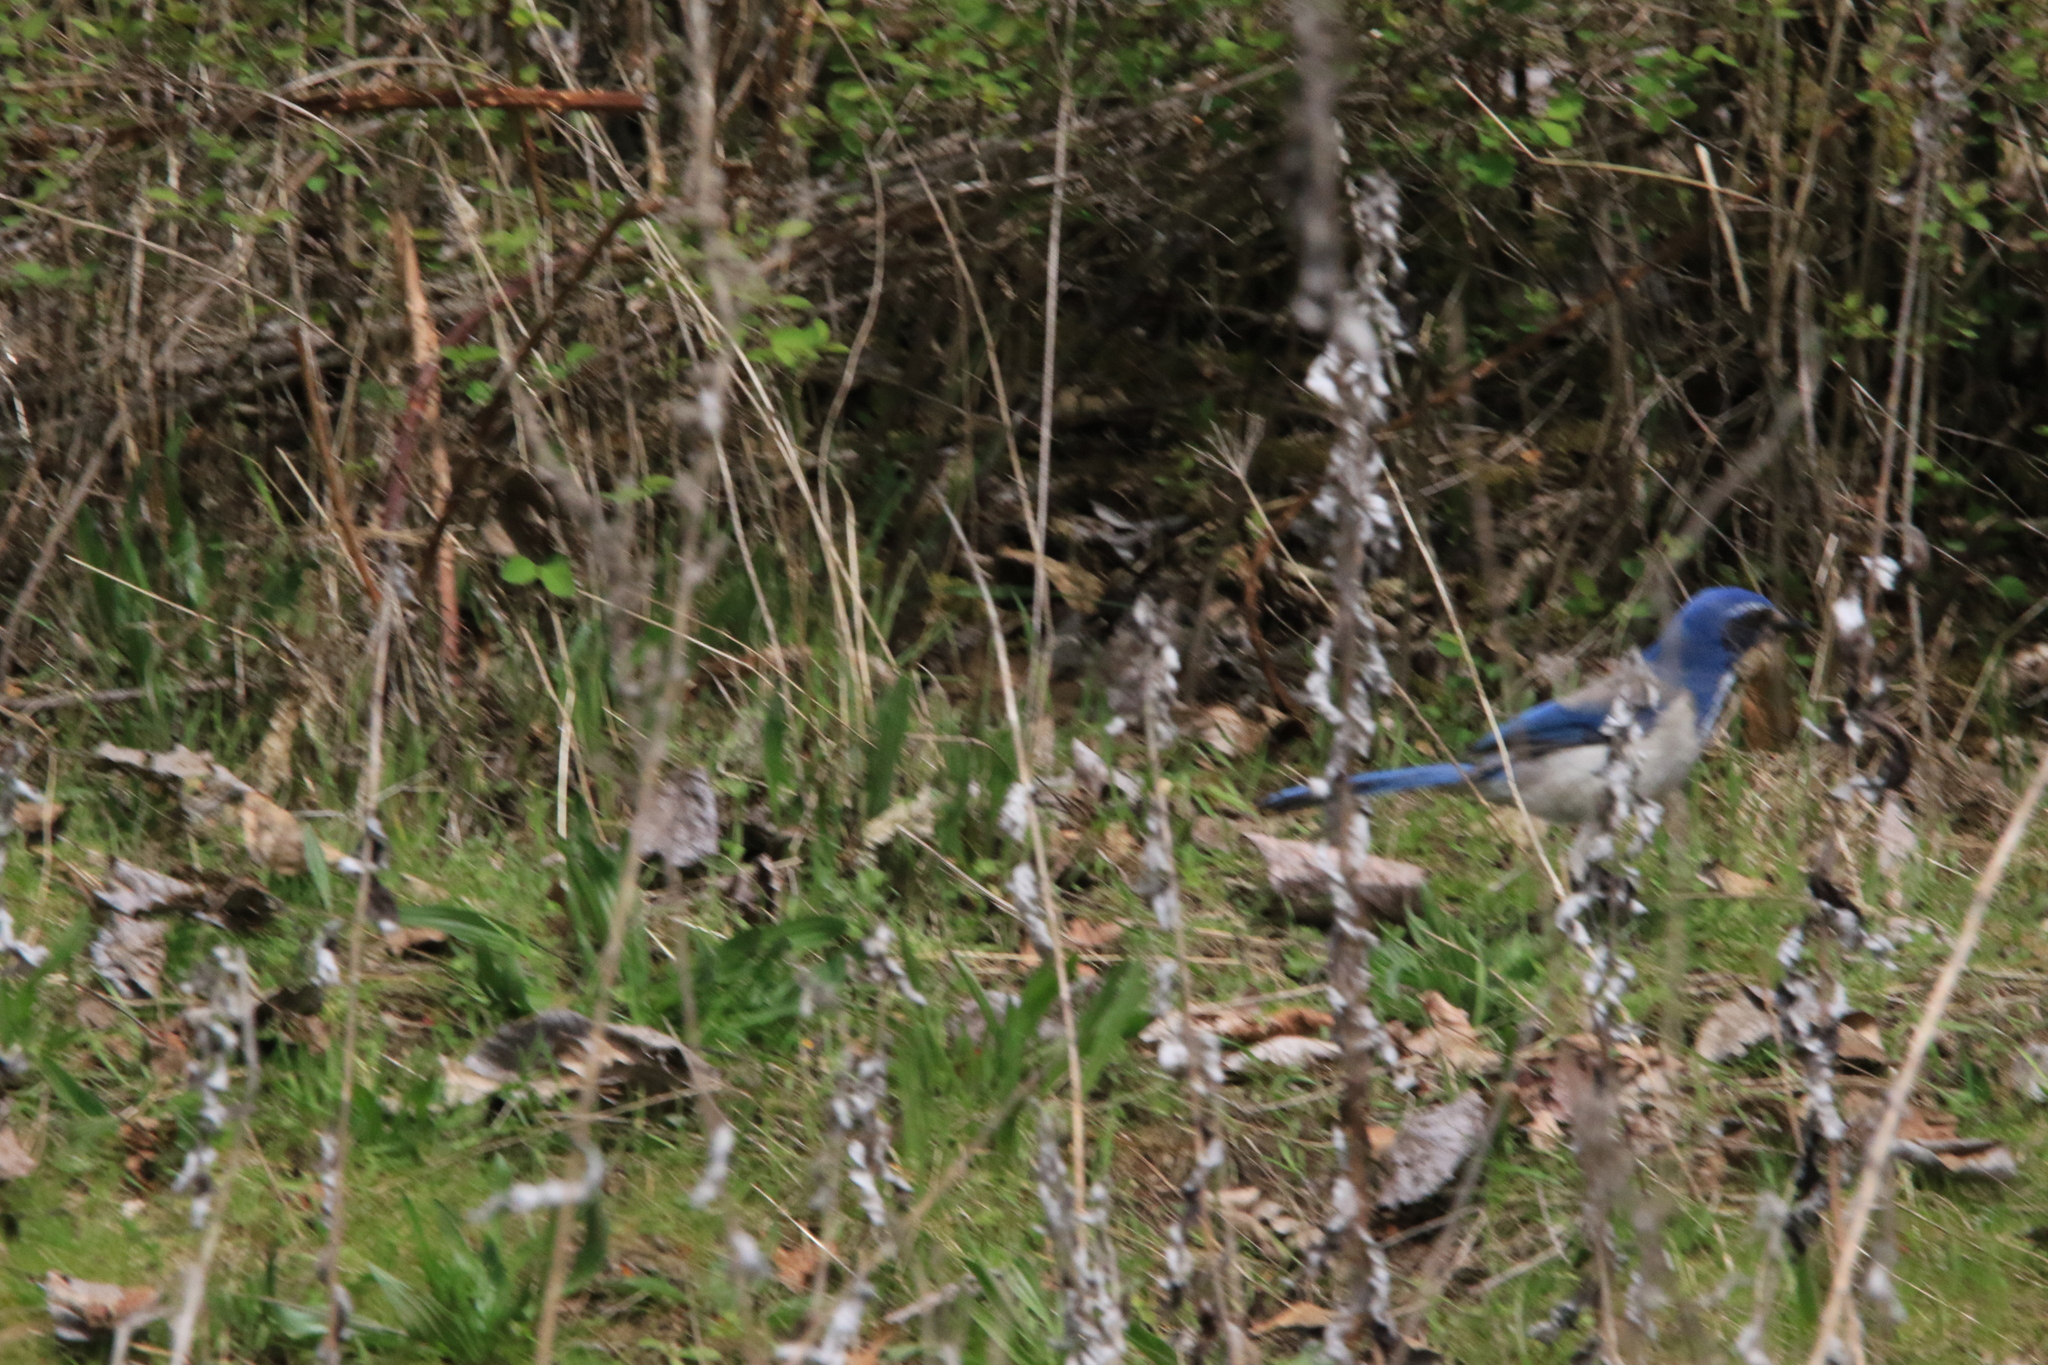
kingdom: Animalia
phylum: Chordata
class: Aves
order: Passeriformes
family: Corvidae
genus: Aphelocoma
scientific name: Aphelocoma californica
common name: California scrub-jay
